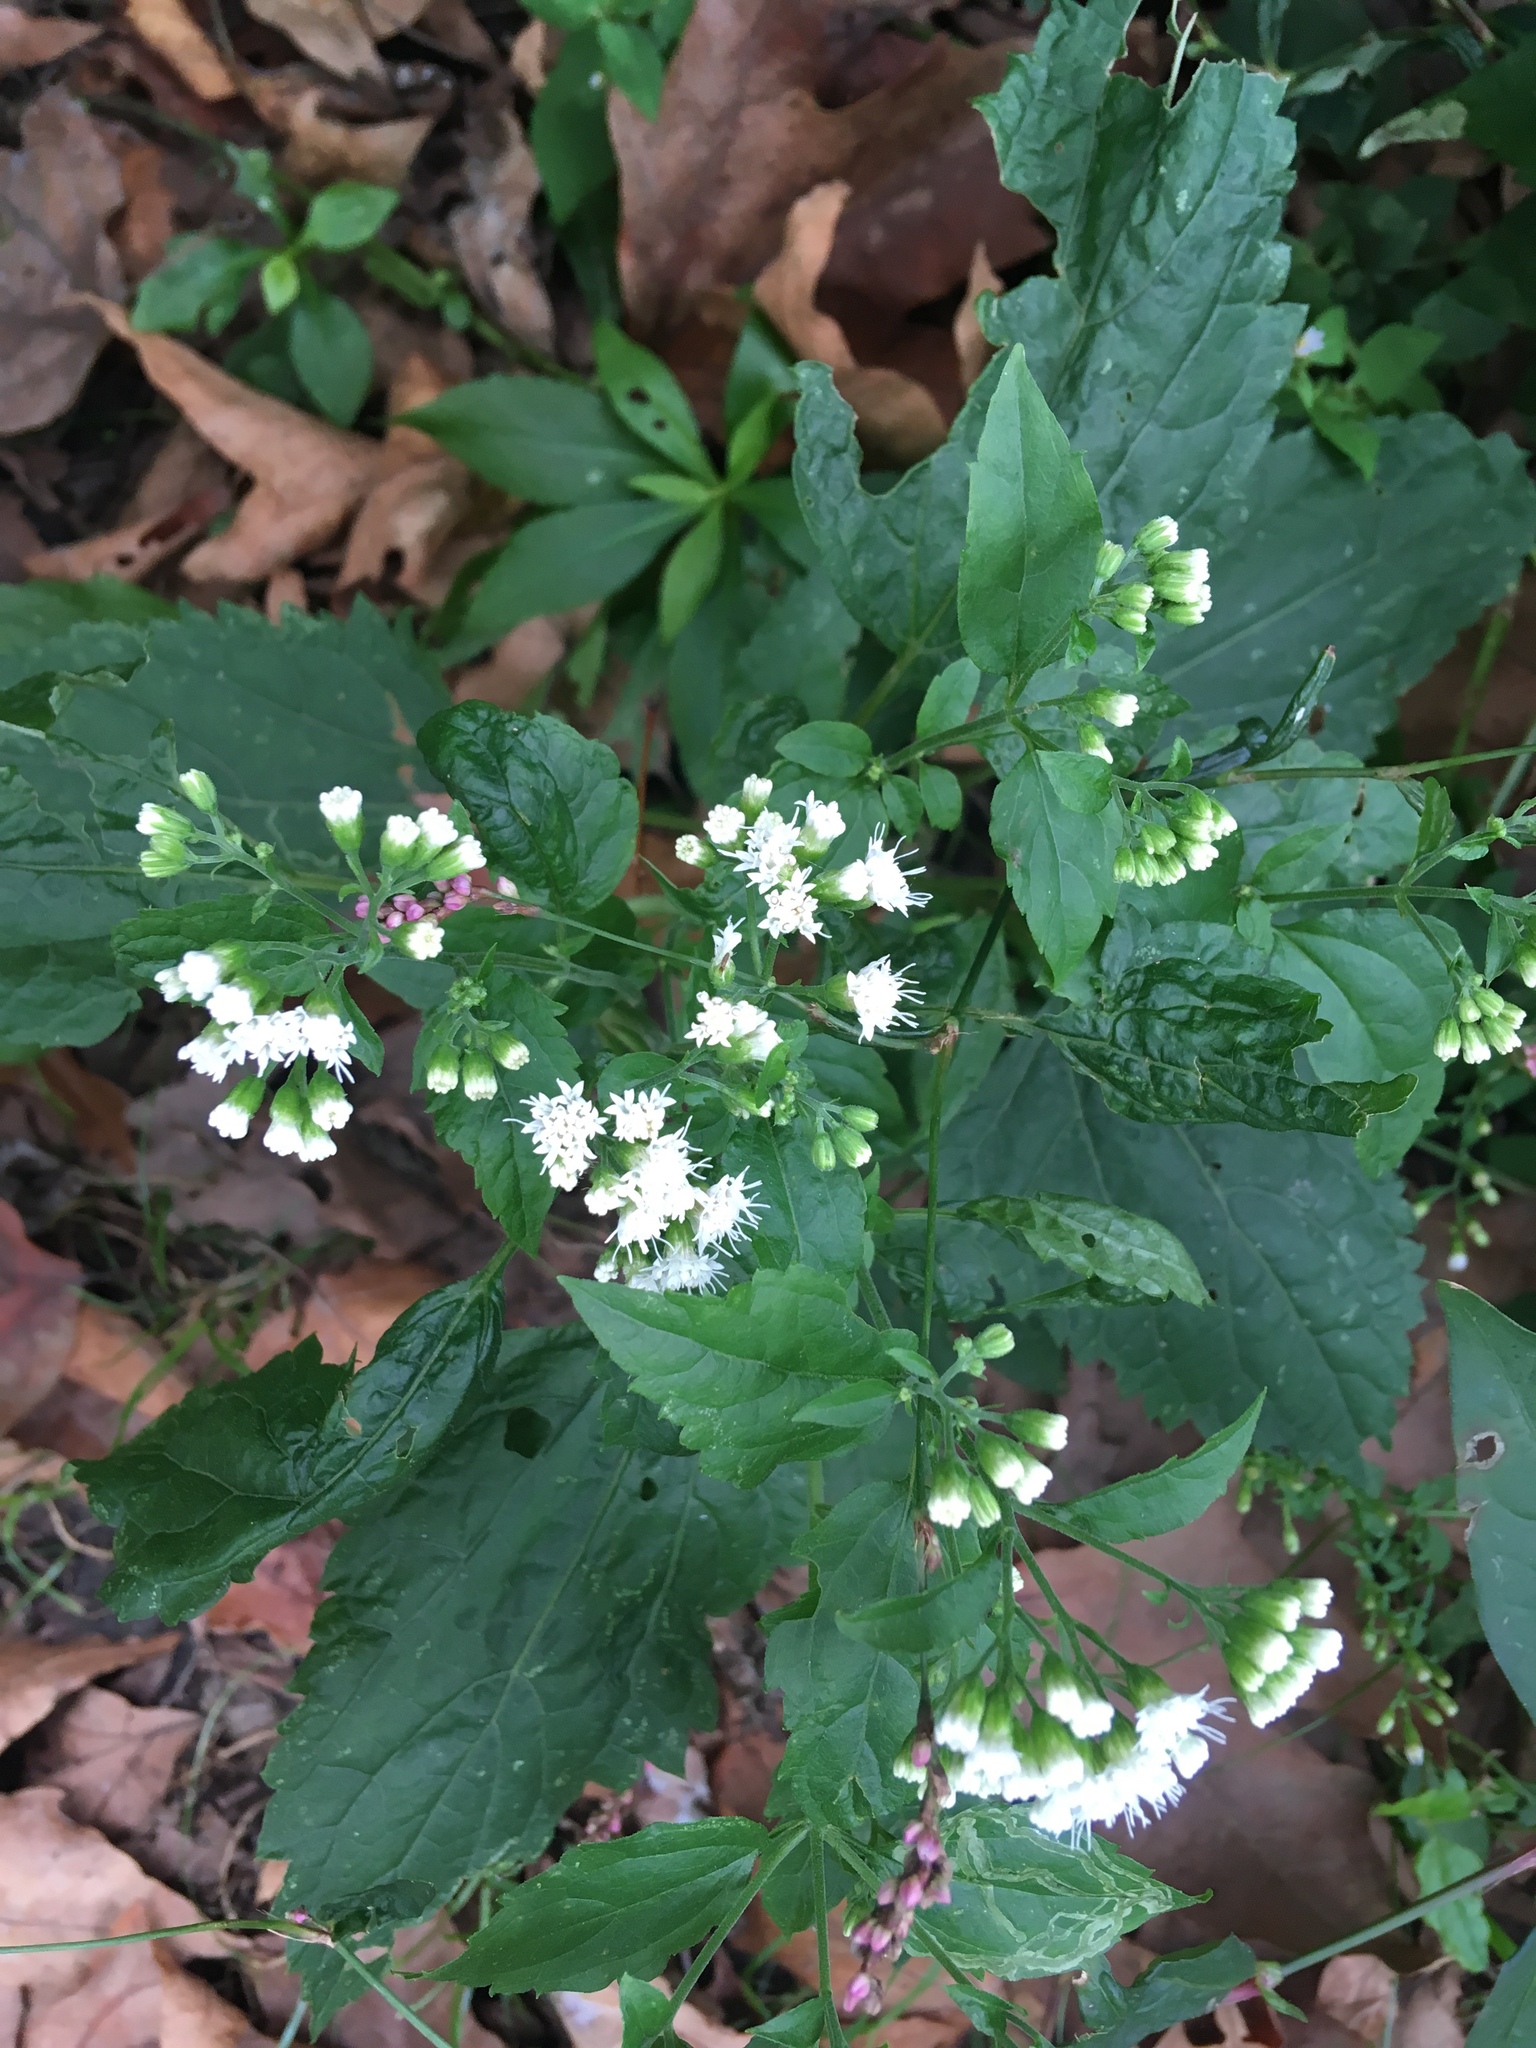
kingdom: Plantae
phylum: Tracheophyta
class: Magnoliopsida
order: Asterales
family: Asteraceae
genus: Ageratina
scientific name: Ageratina altissima
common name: White snakeroot
